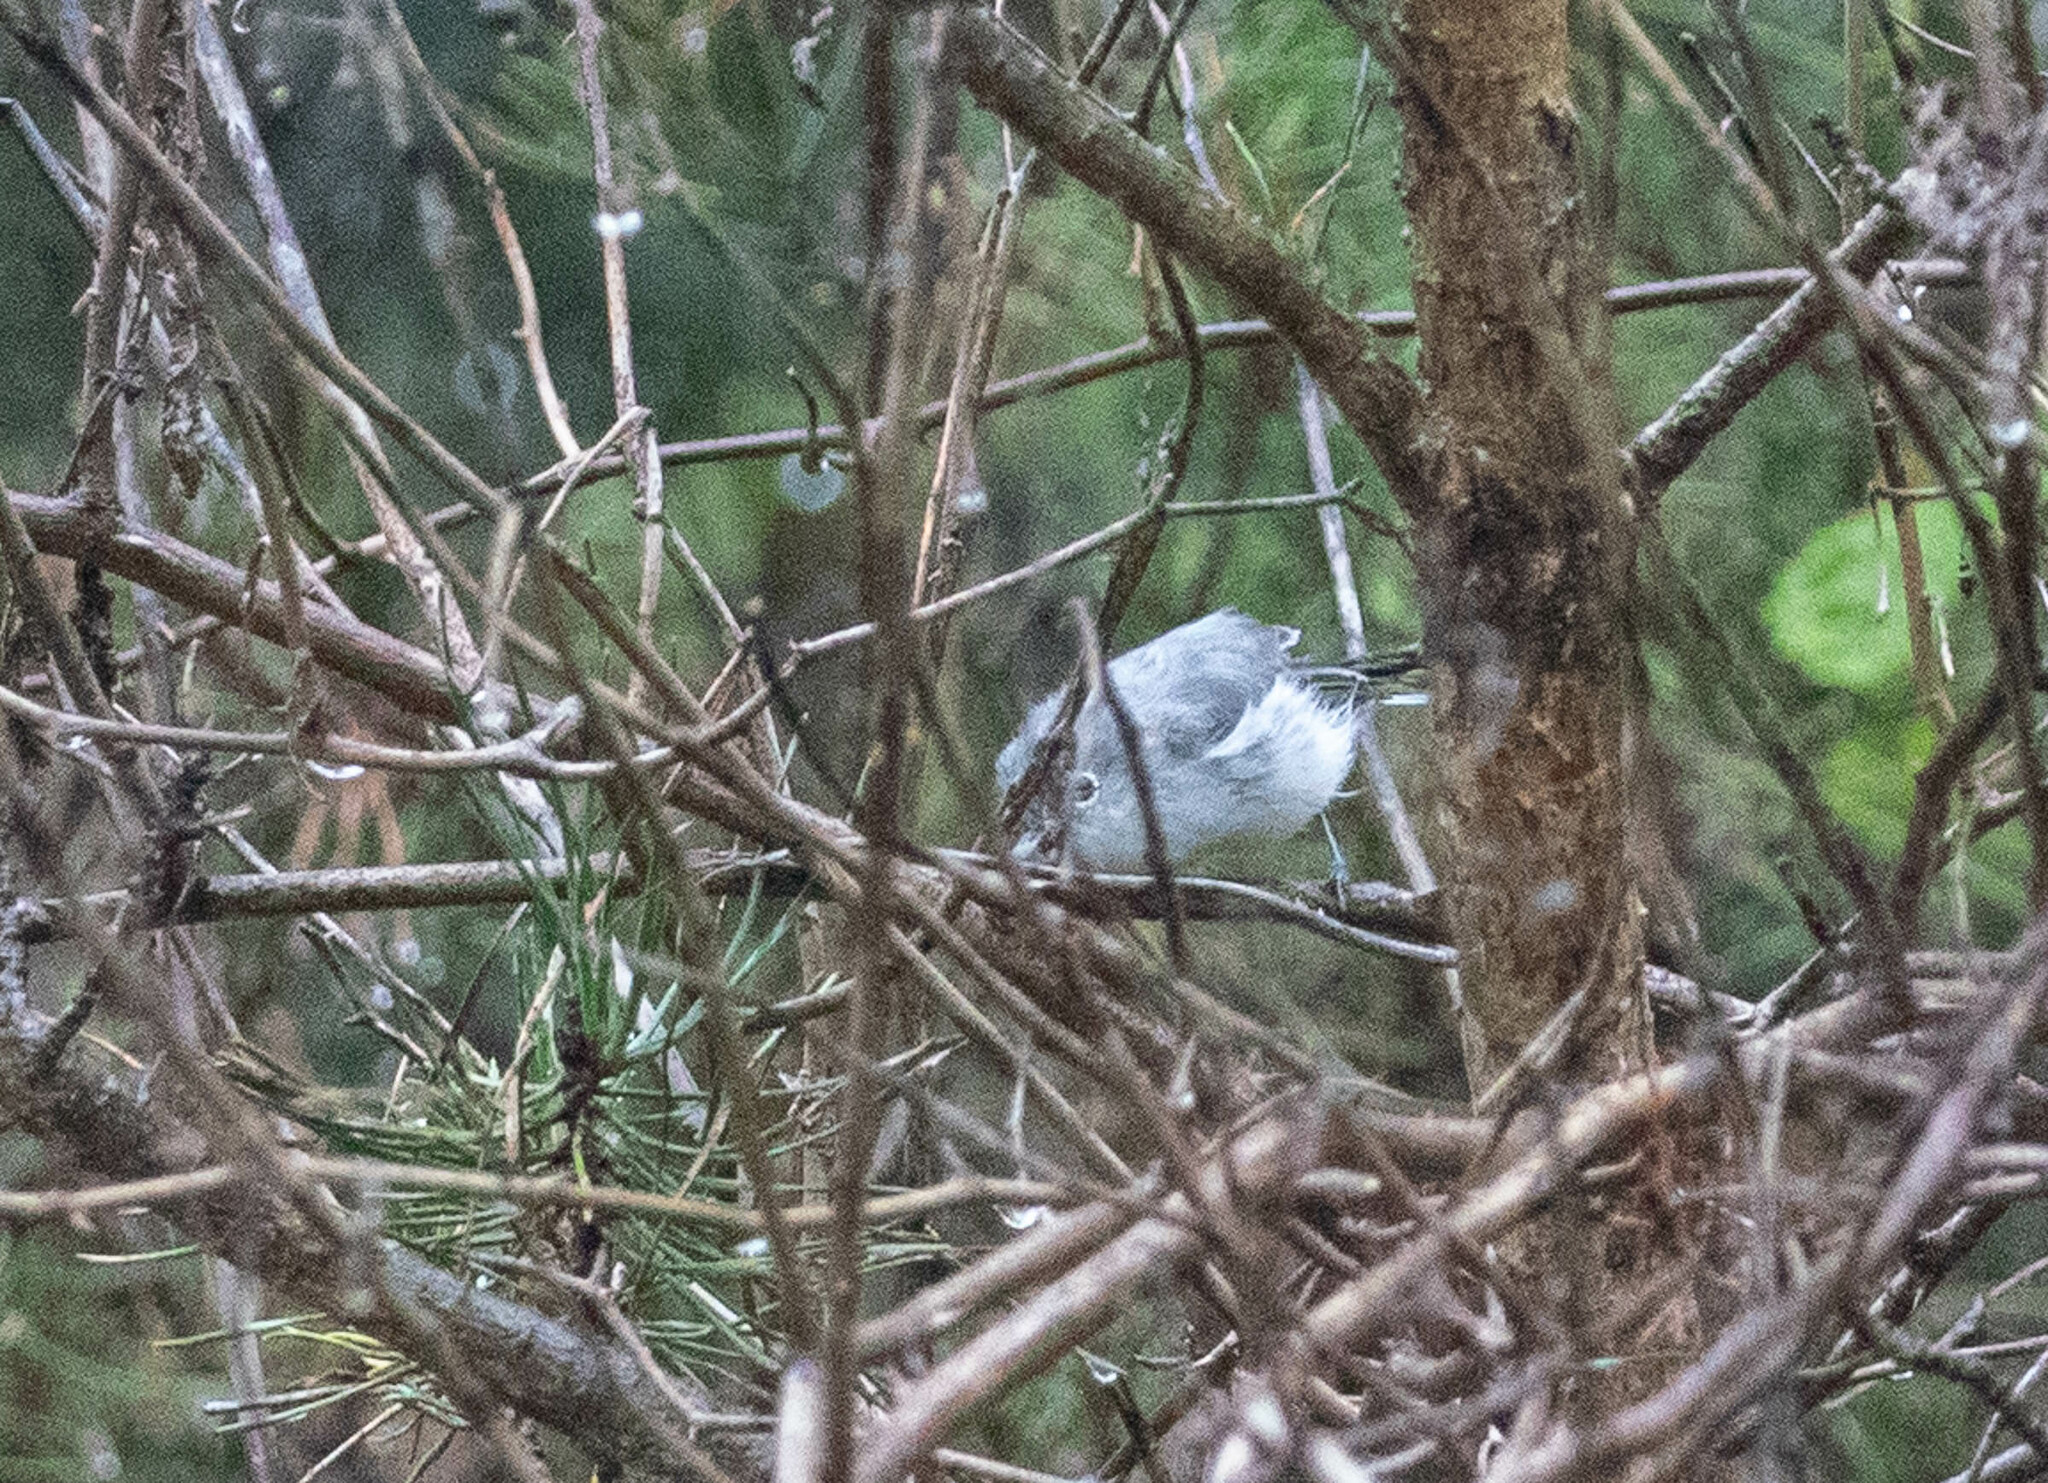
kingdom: Animalia
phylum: Chordata
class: Aves
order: Passeriformes
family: Polioptilidae
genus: Polioptila
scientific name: Polioptila caerulea
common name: Blue-gray gnatcatcher
